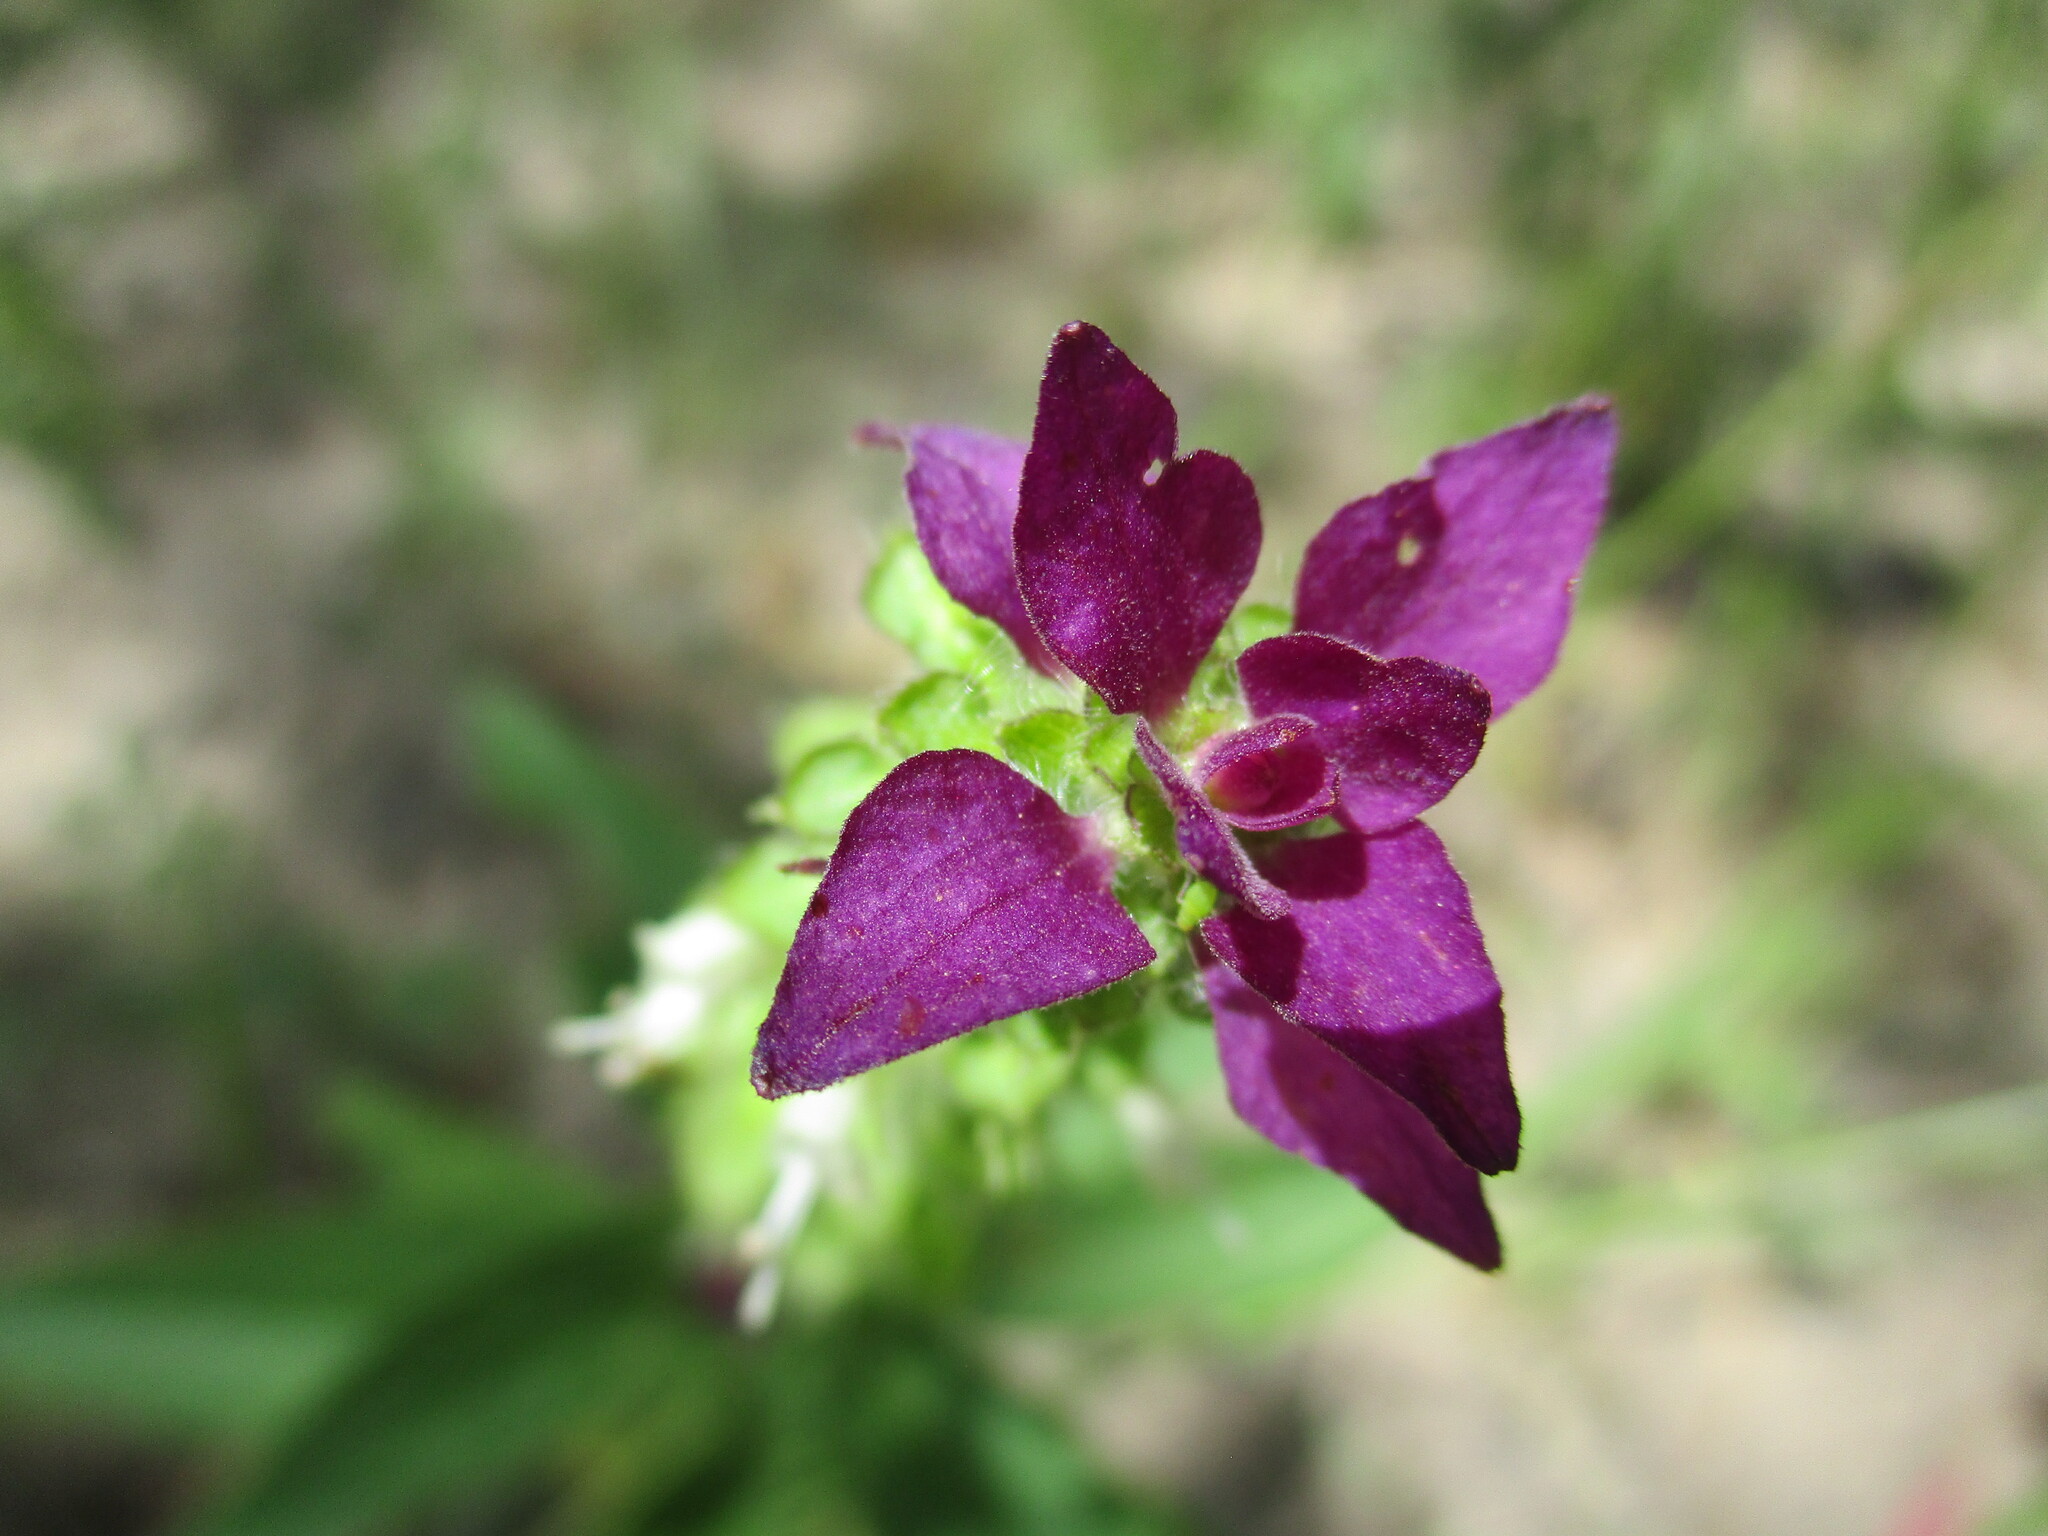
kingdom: Plantae
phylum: Tracheophyta
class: Magnoliopsida
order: Lamiales
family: Lamiaceae
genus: Syncolostemon
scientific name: Syncolostemon bracteosus
